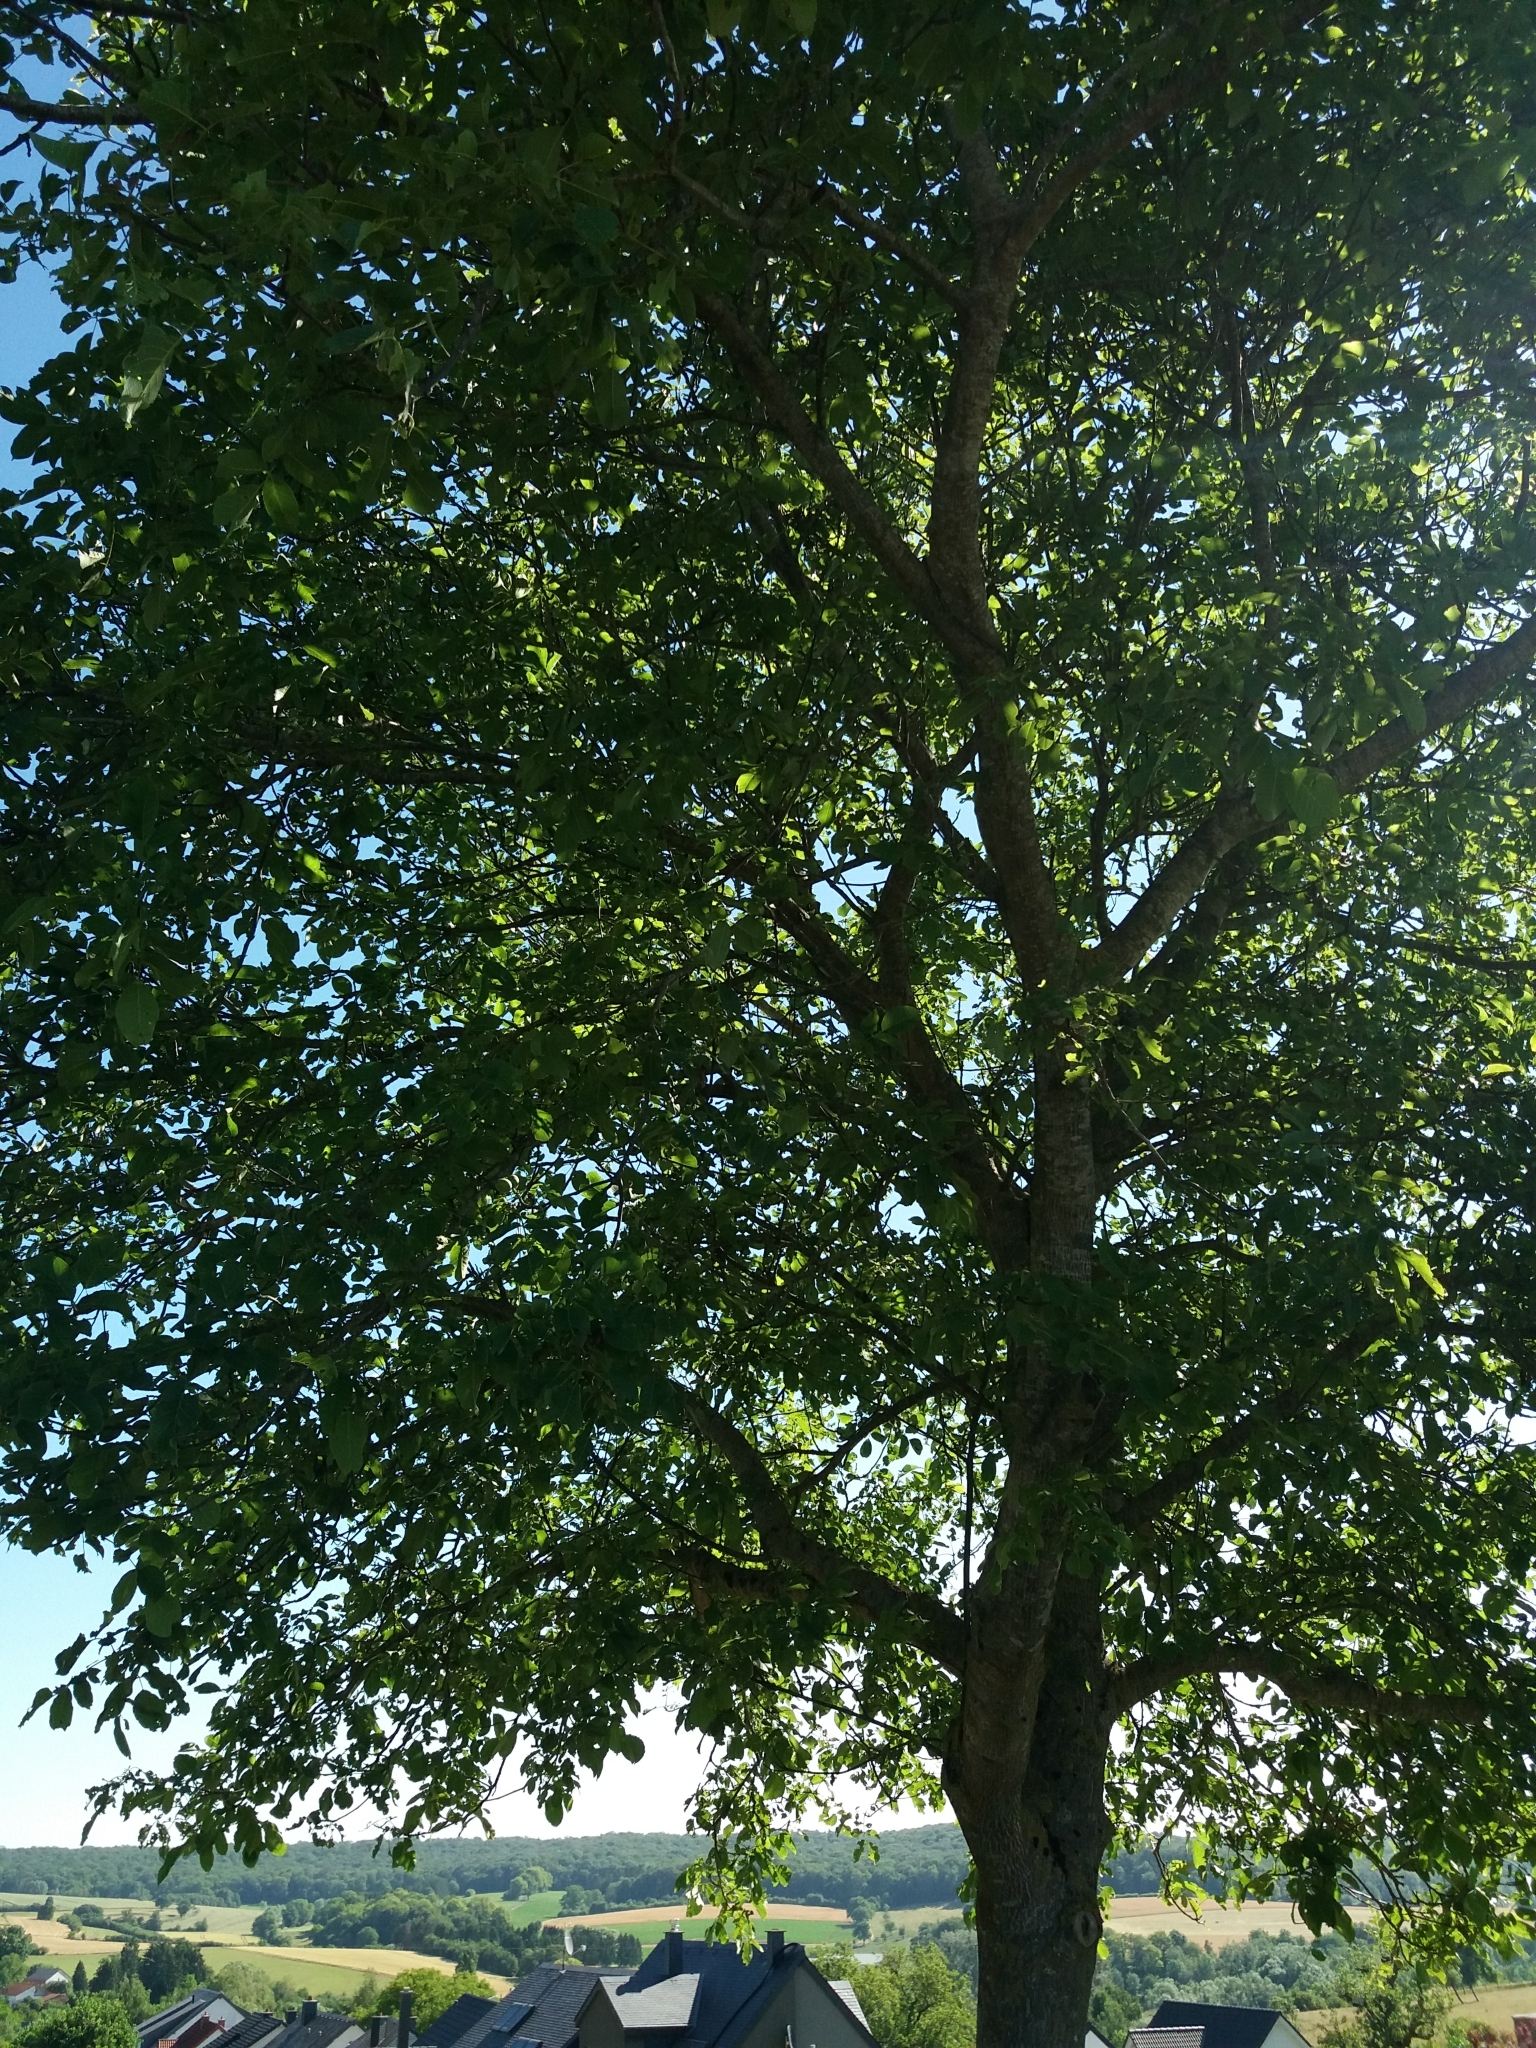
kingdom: Plantae
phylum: Tracheophyta
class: Magnoliopsida
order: Fagales
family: Juglandaceae
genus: Juglans
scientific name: Juglans regia
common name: Walnut
